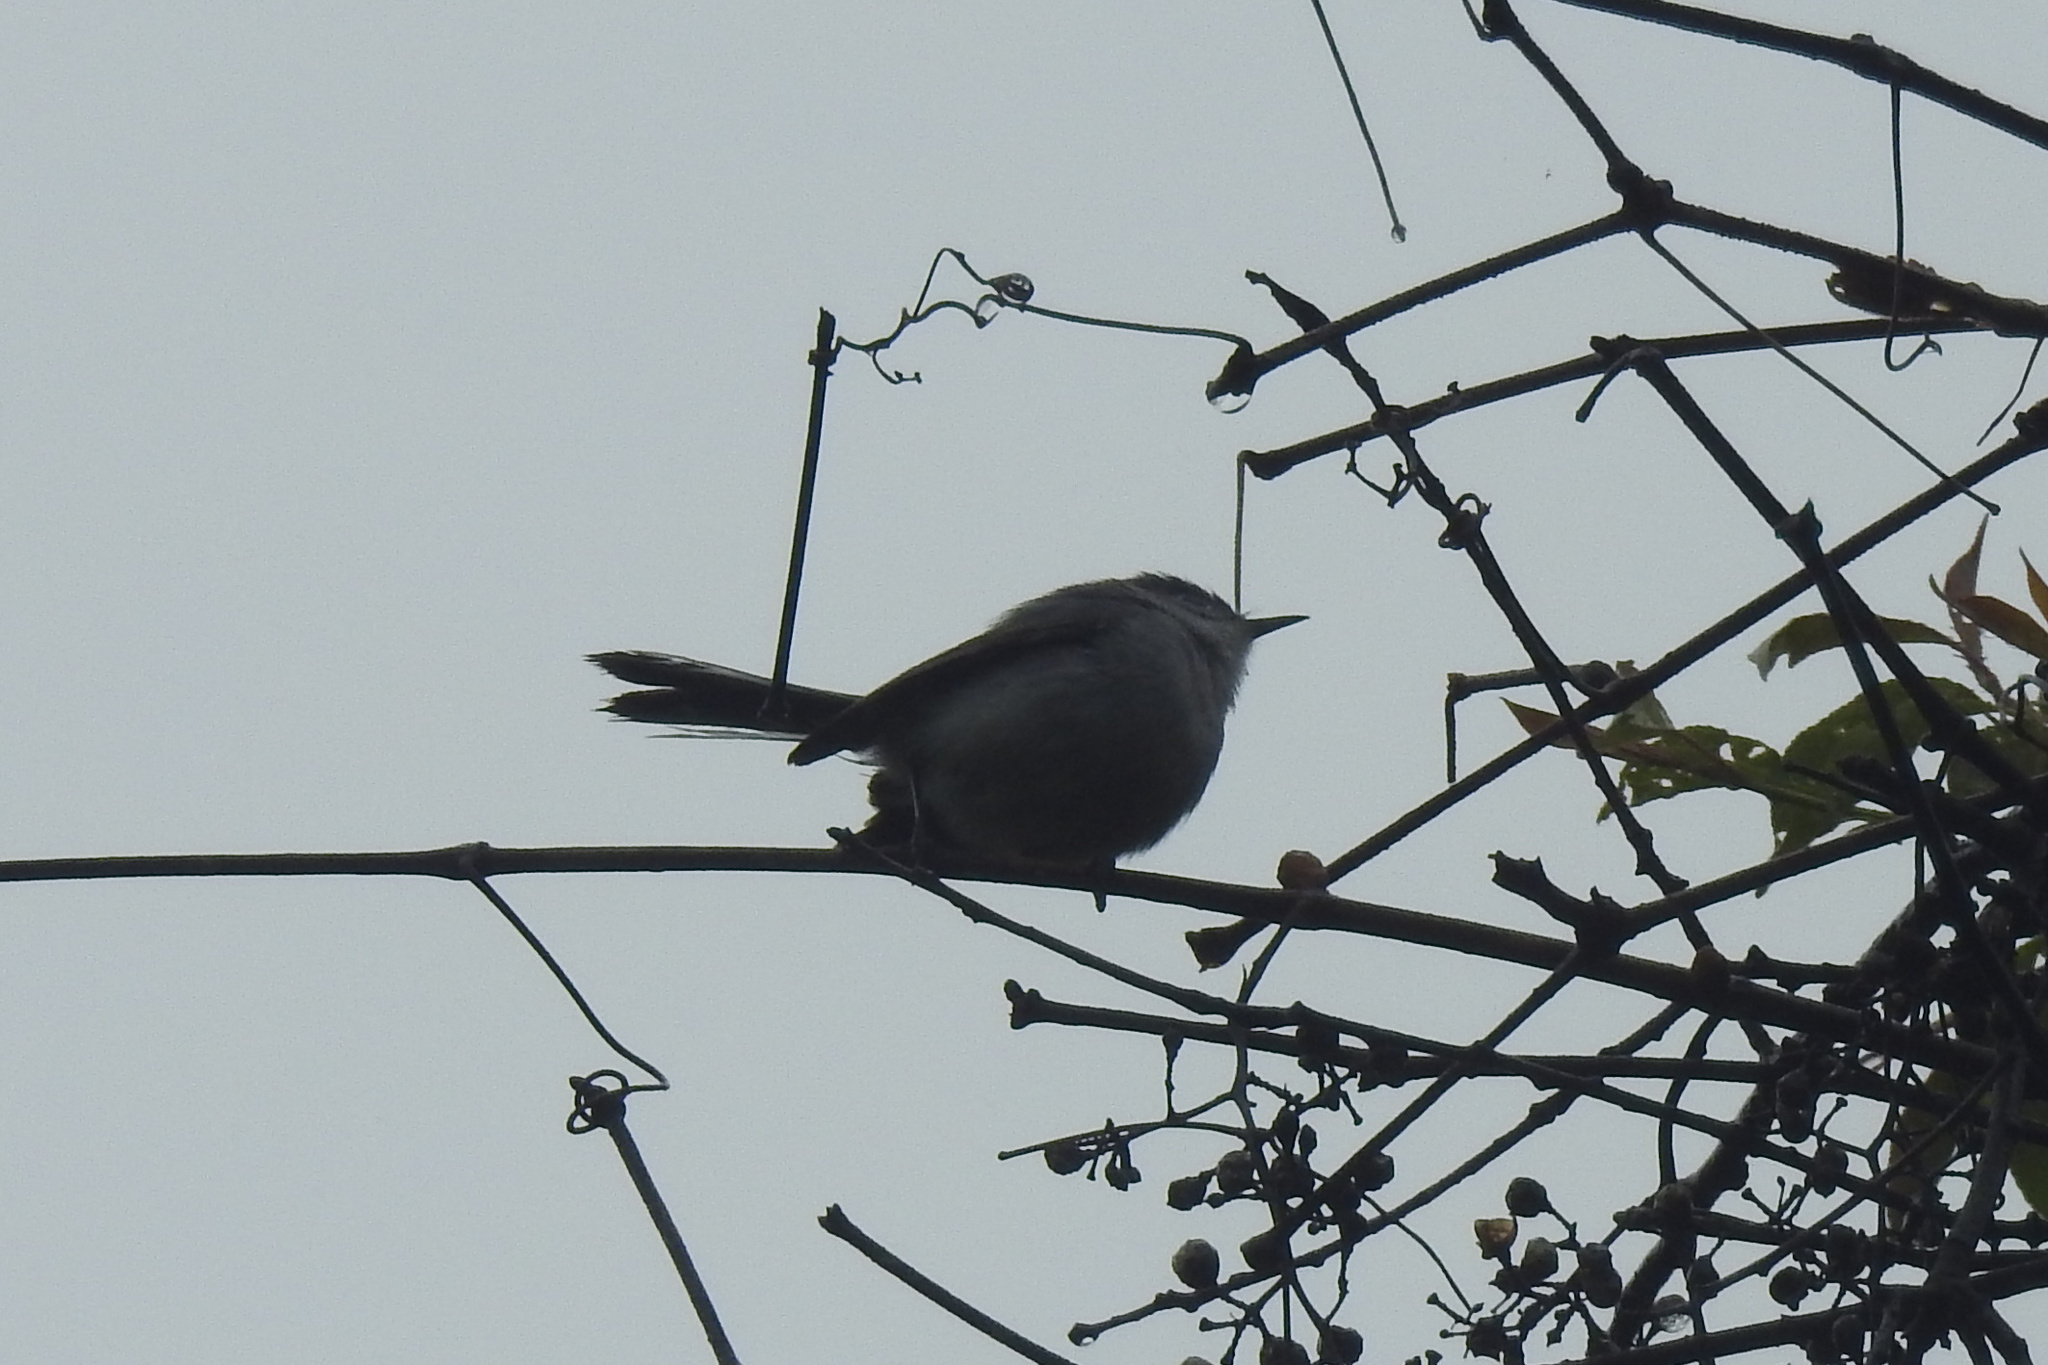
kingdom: Animalia
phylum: Chordata
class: Aves
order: Passeriformes
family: Polioptilidae
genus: Polioptila
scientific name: Polioptila caerulea
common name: Blue-gray gnatcatcher
